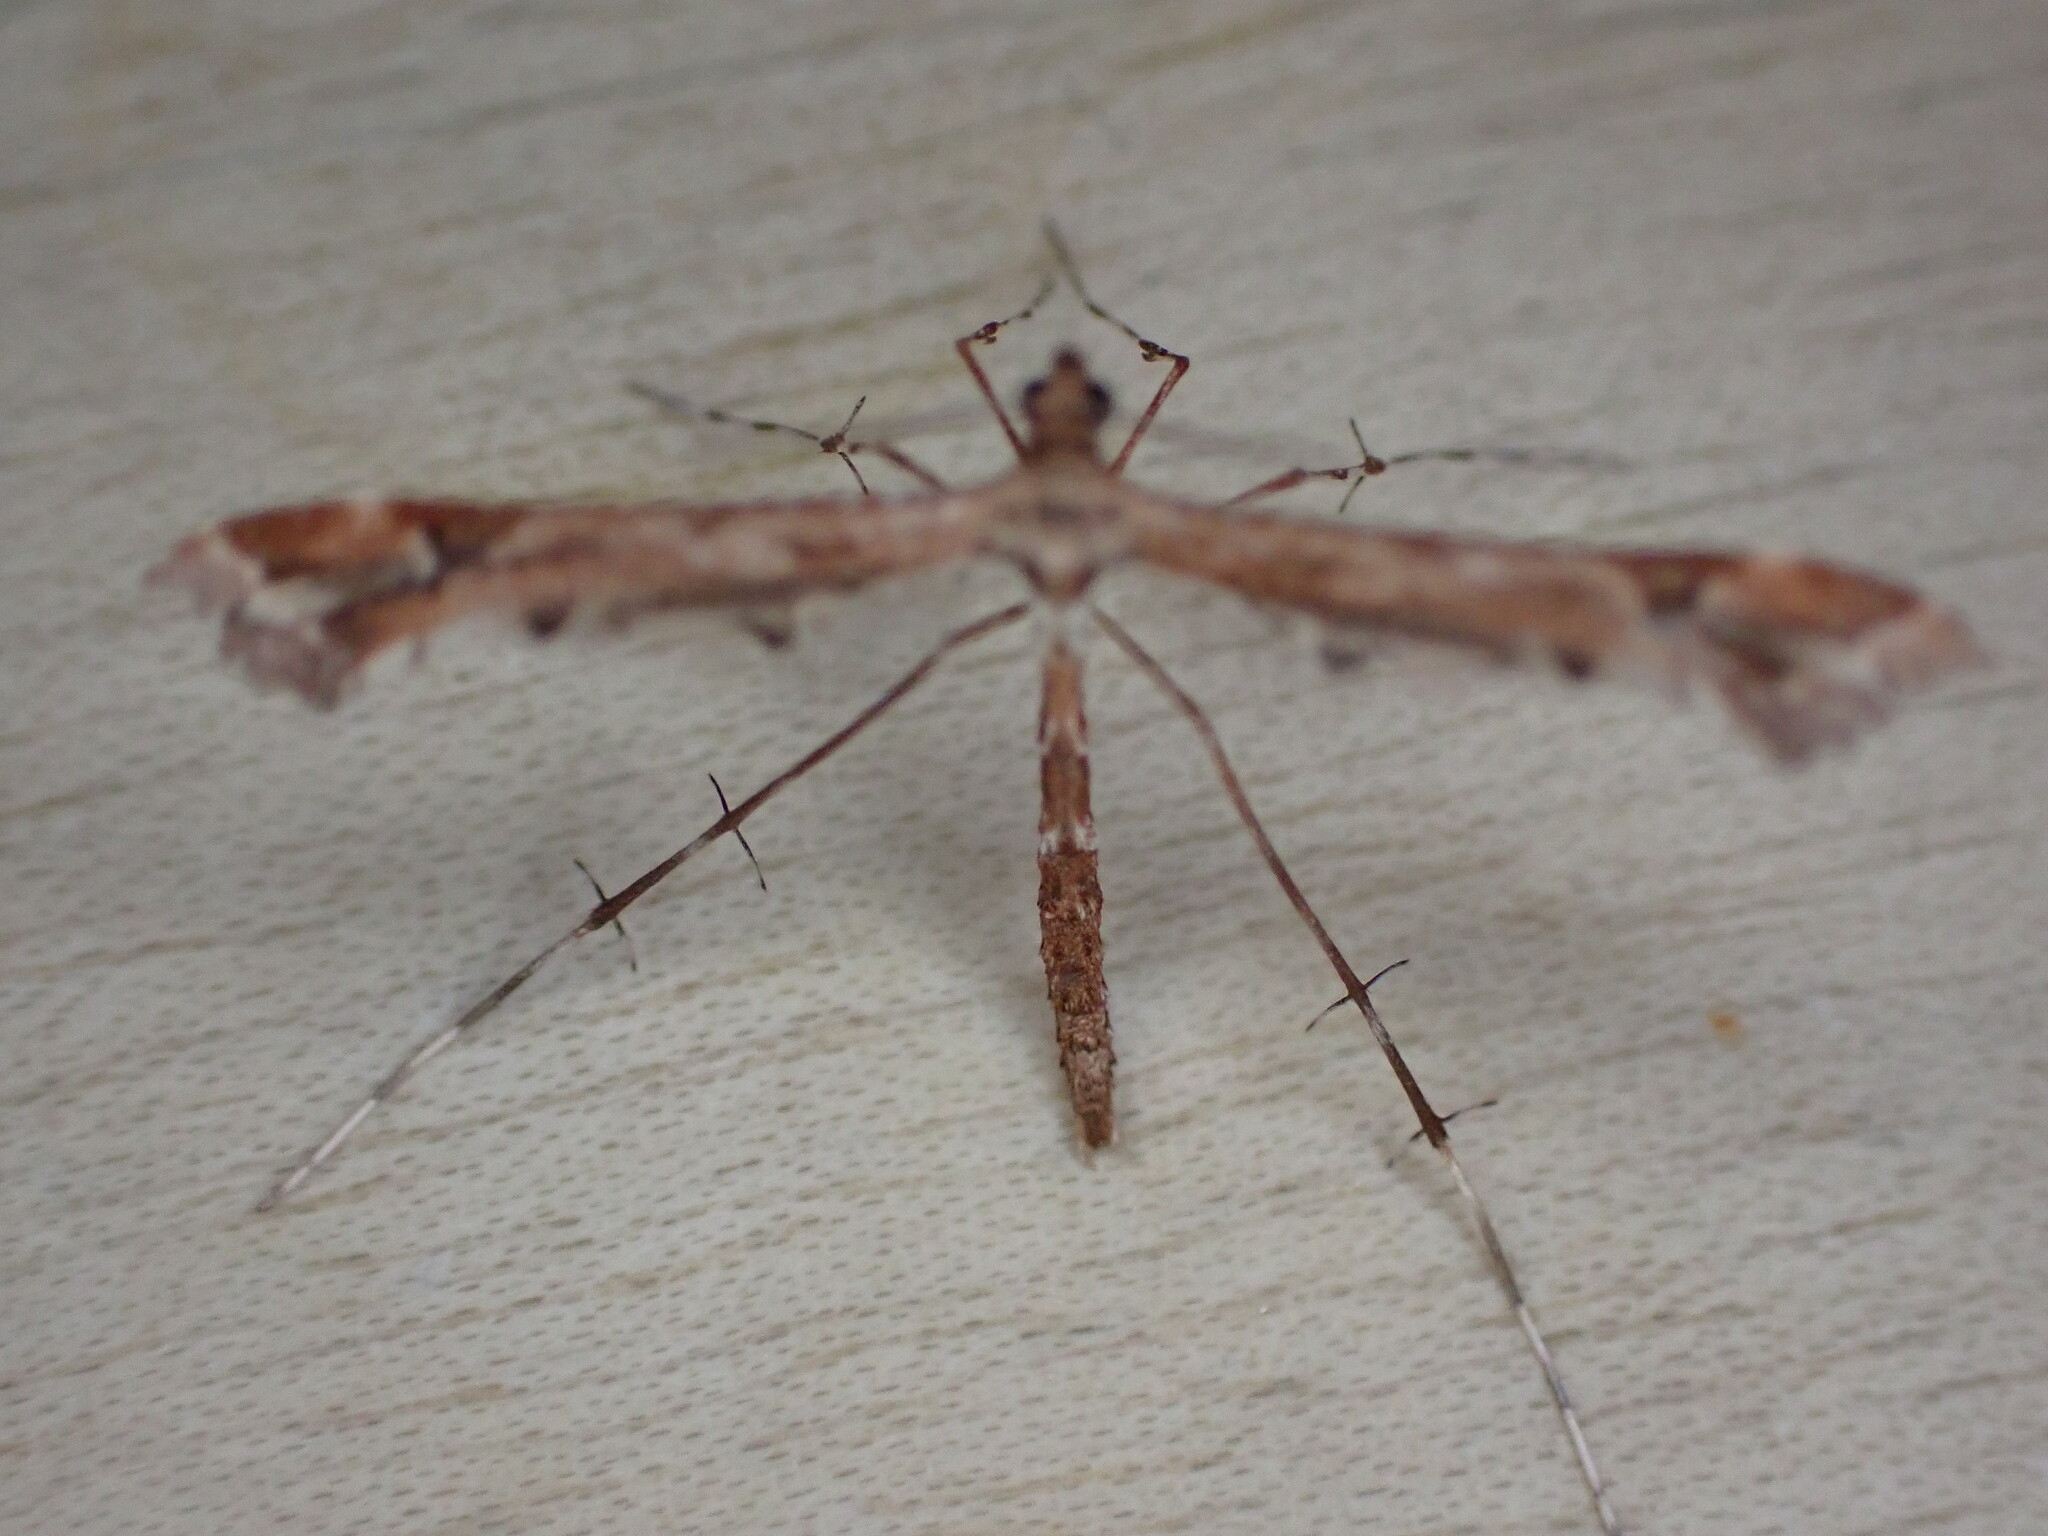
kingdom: Animalia
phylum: Arthropoda
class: Insecta
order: Lepidoptera
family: Pterophoridae
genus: Amblyptilia
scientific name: Amblyptilia acanthadactyla
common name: Beautiful plume
